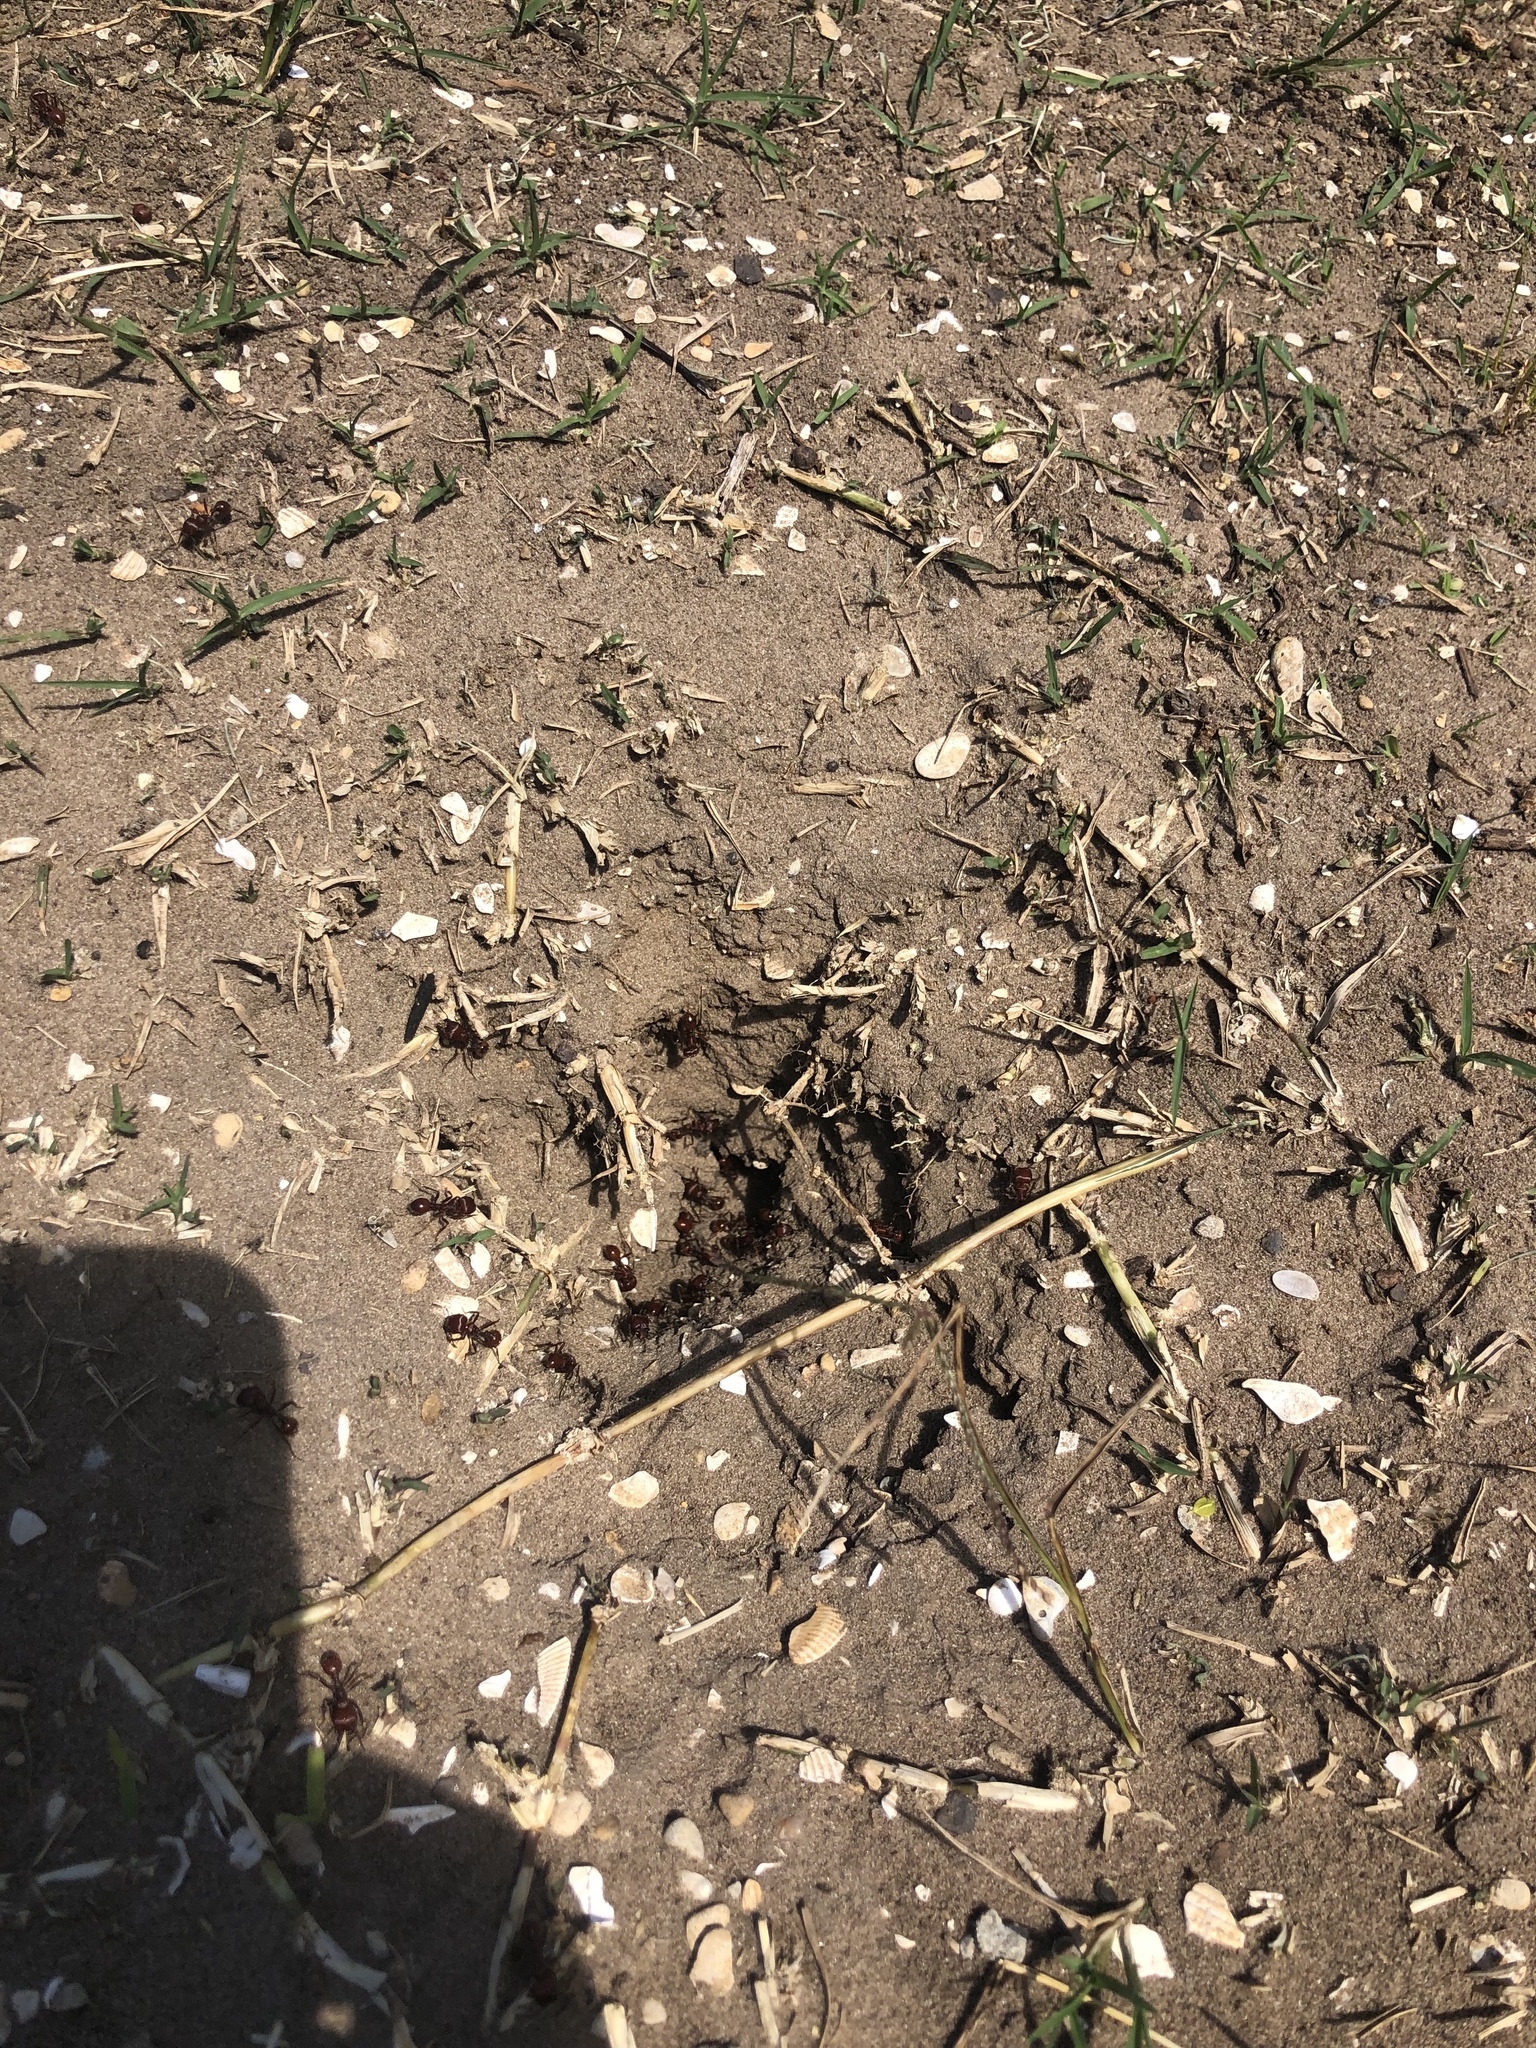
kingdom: Animalia
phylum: Arthropoda
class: Insecta
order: Hymenoptera
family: Formicidae
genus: Pogonomyrmex
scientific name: Pogonomyrmex barbatus
